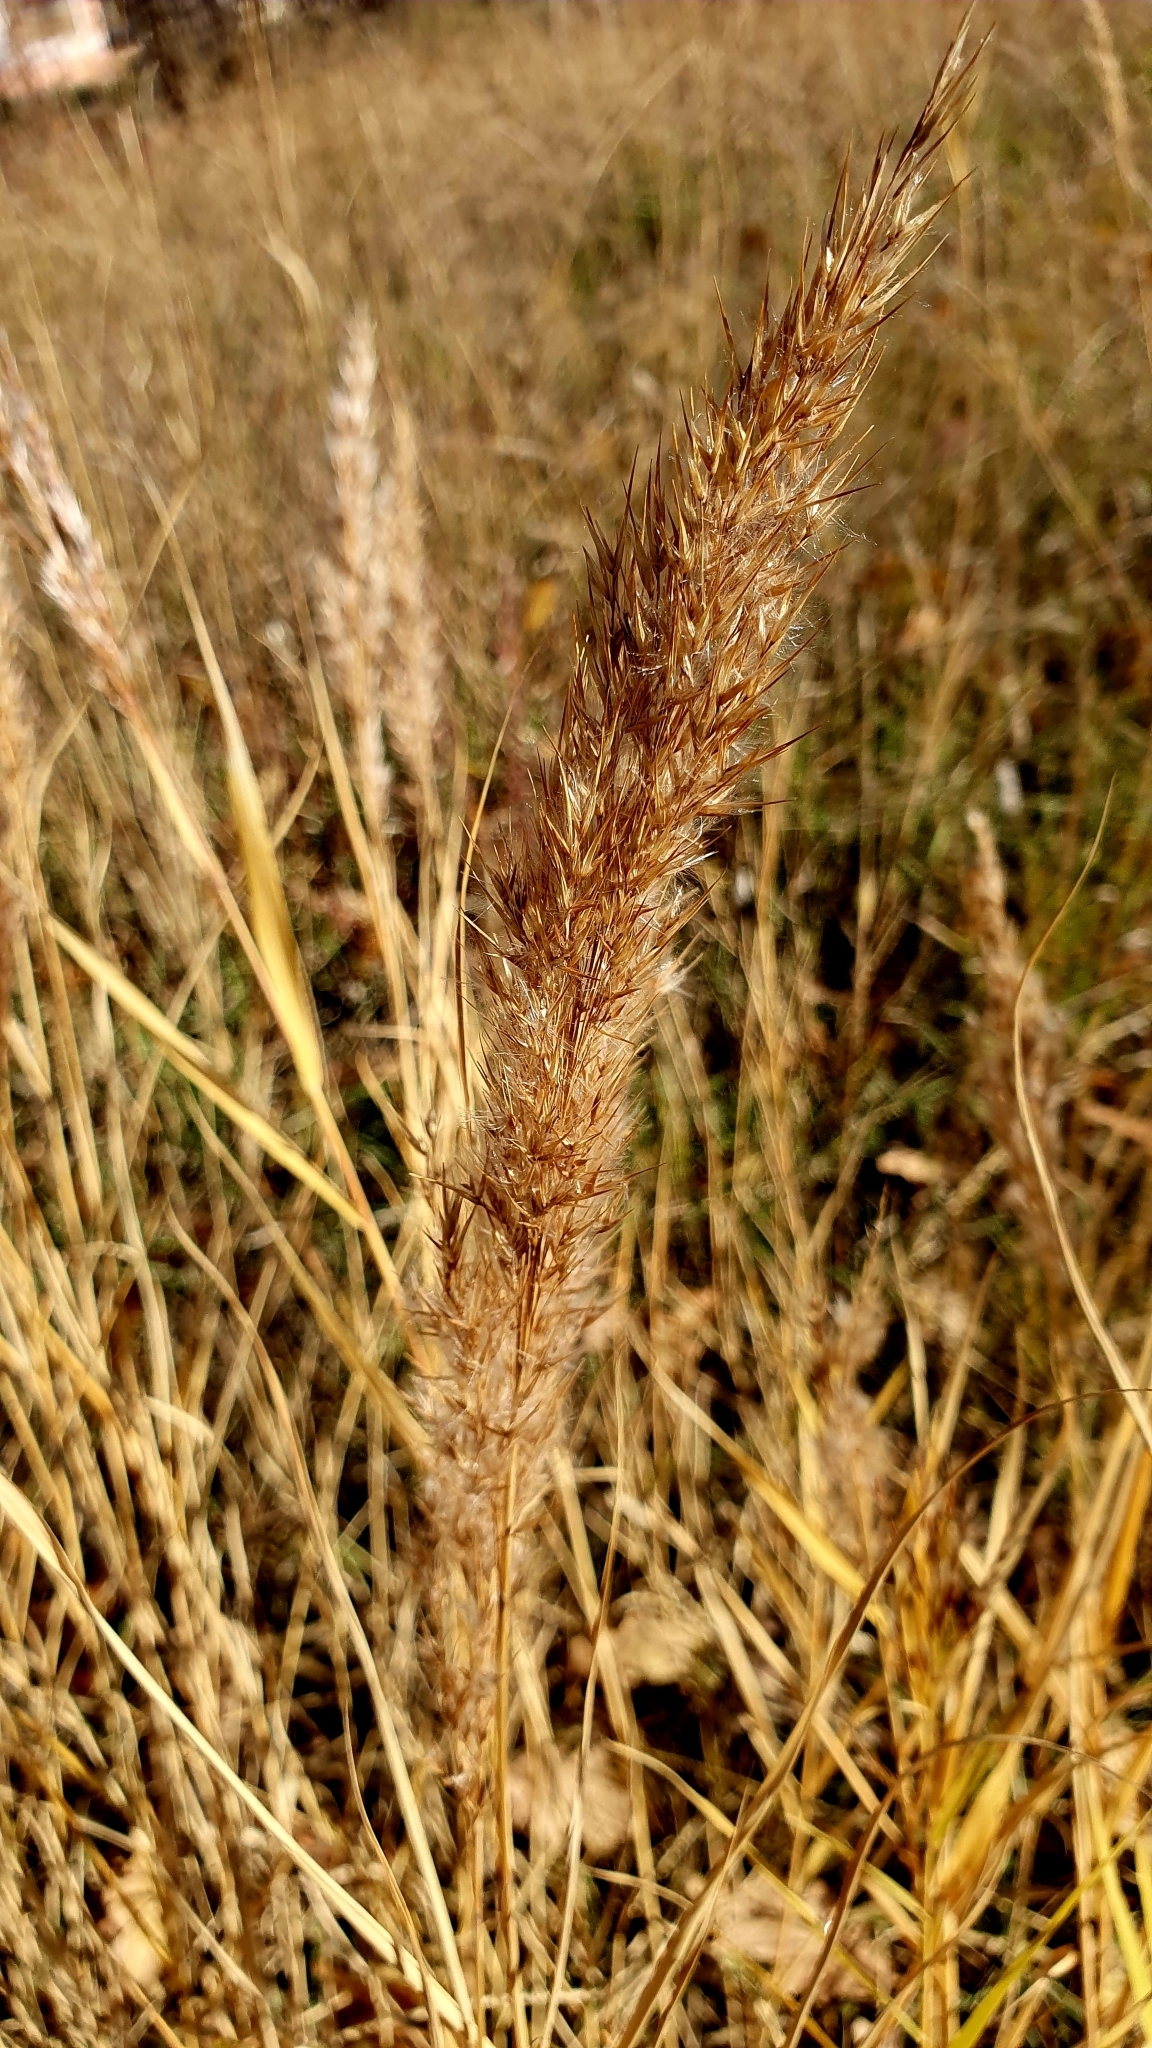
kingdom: Plantae
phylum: Tracheophyta
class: Liliopsida
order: Poales
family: Poaceae
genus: Calamagrostis
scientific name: Calamagrostis epigejos
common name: Wood small-reed
